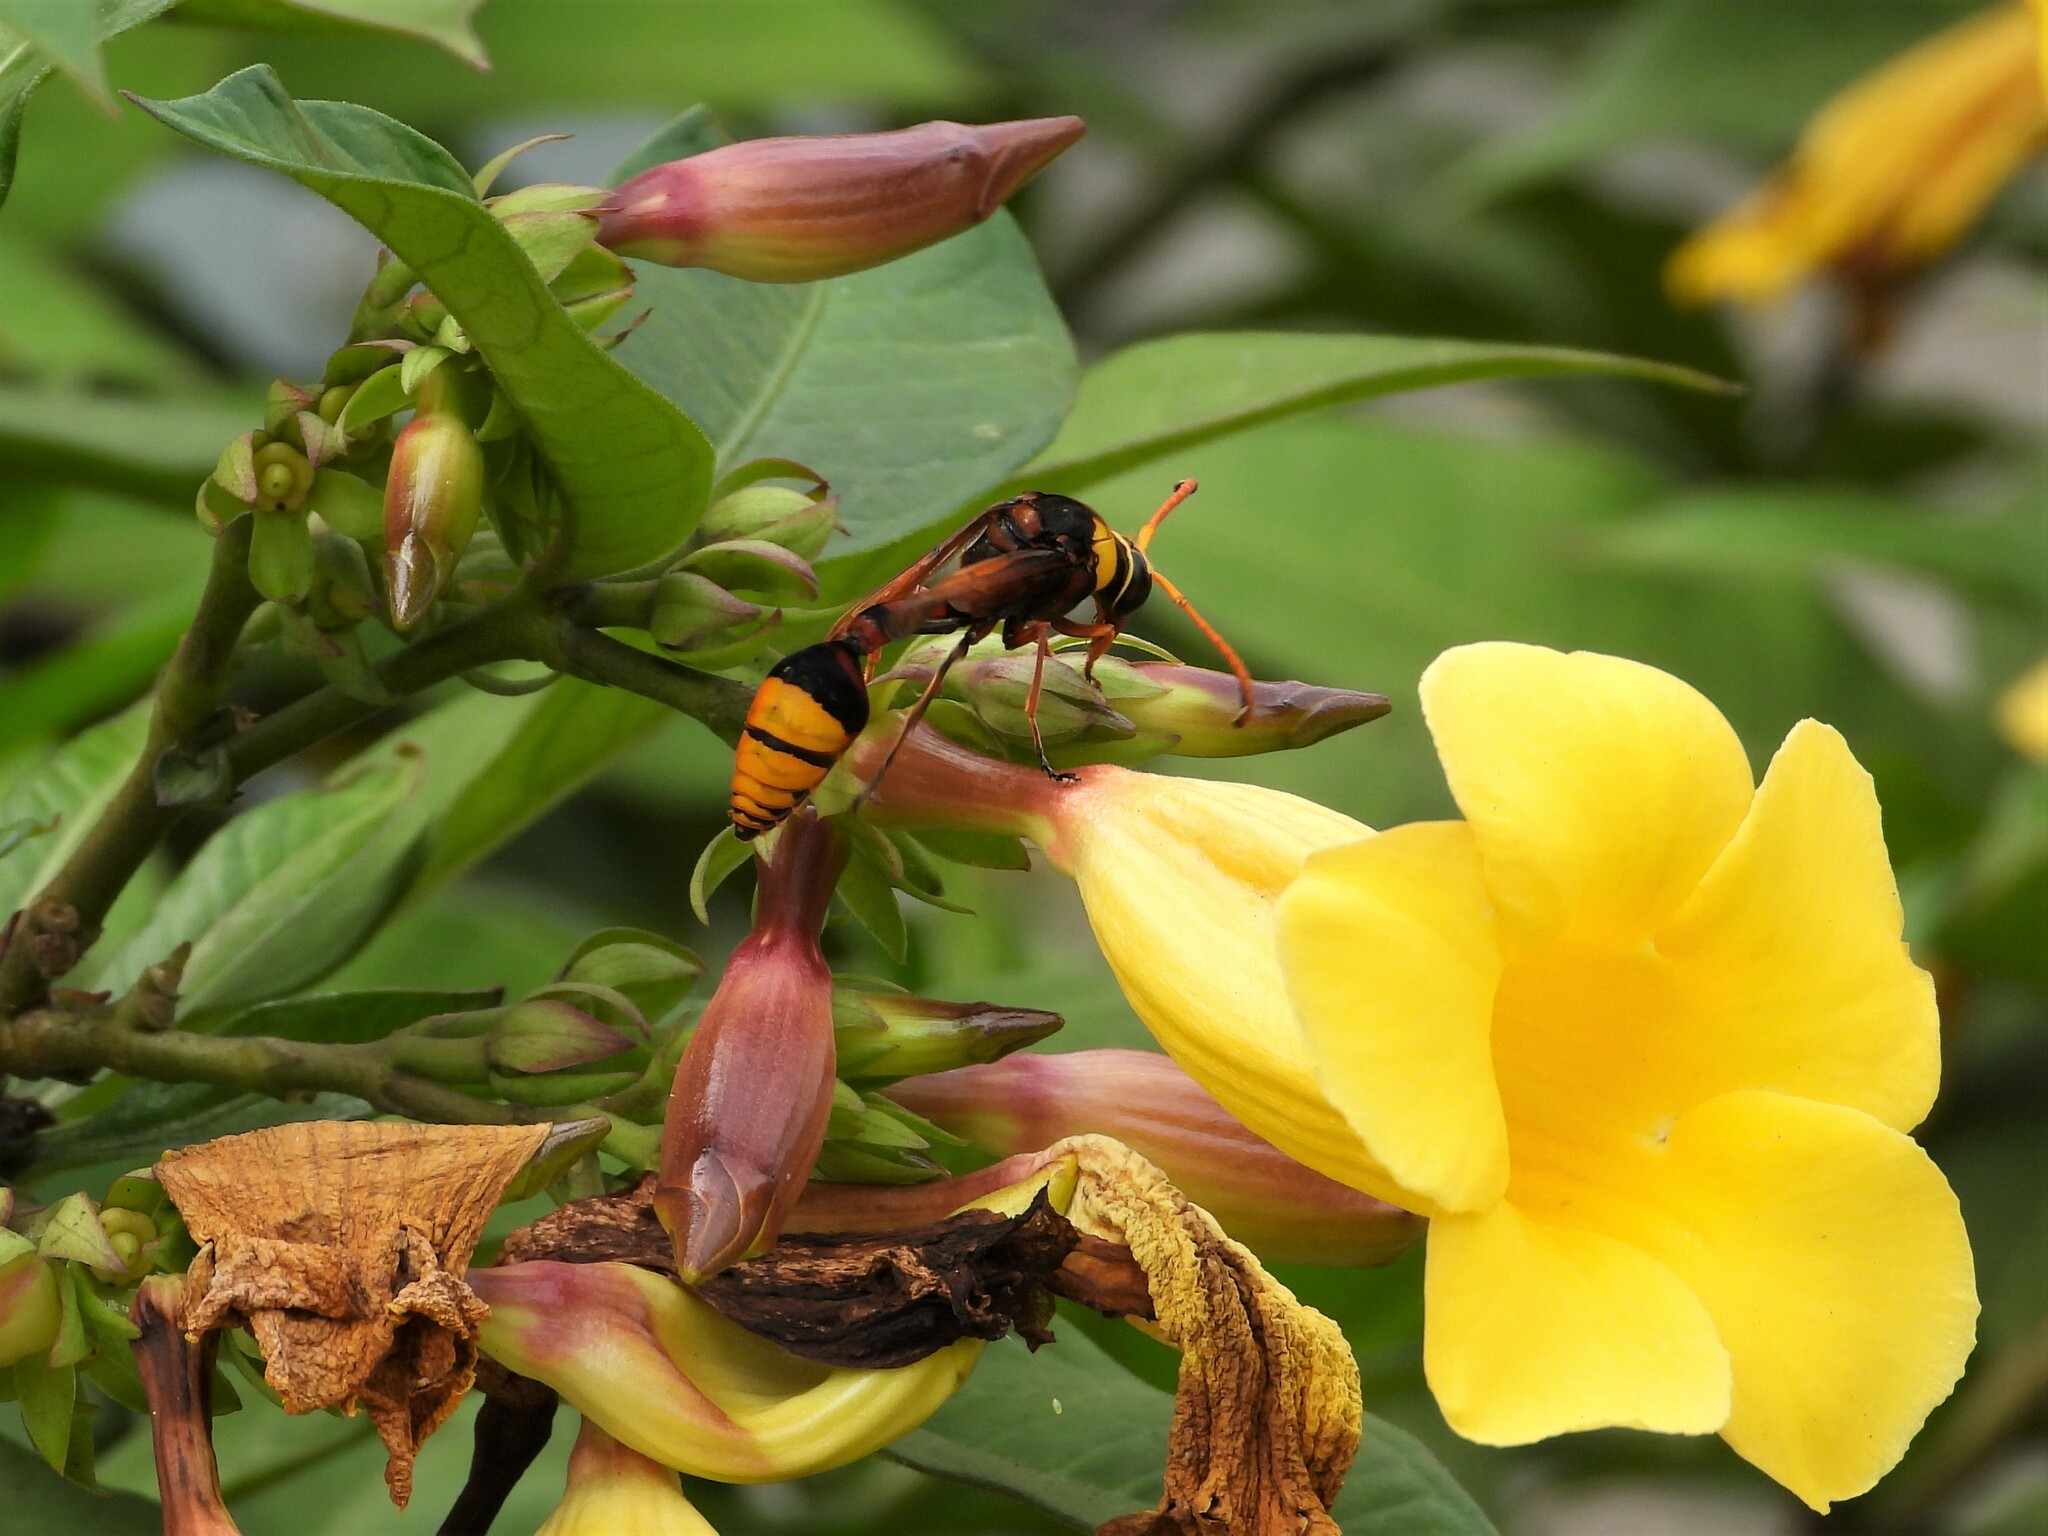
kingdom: Animalia
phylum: Arthropoda
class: Insecta
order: Hymenoptera
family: Eumenidae
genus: Delta
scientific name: Delta pyriforme
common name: Wasp
